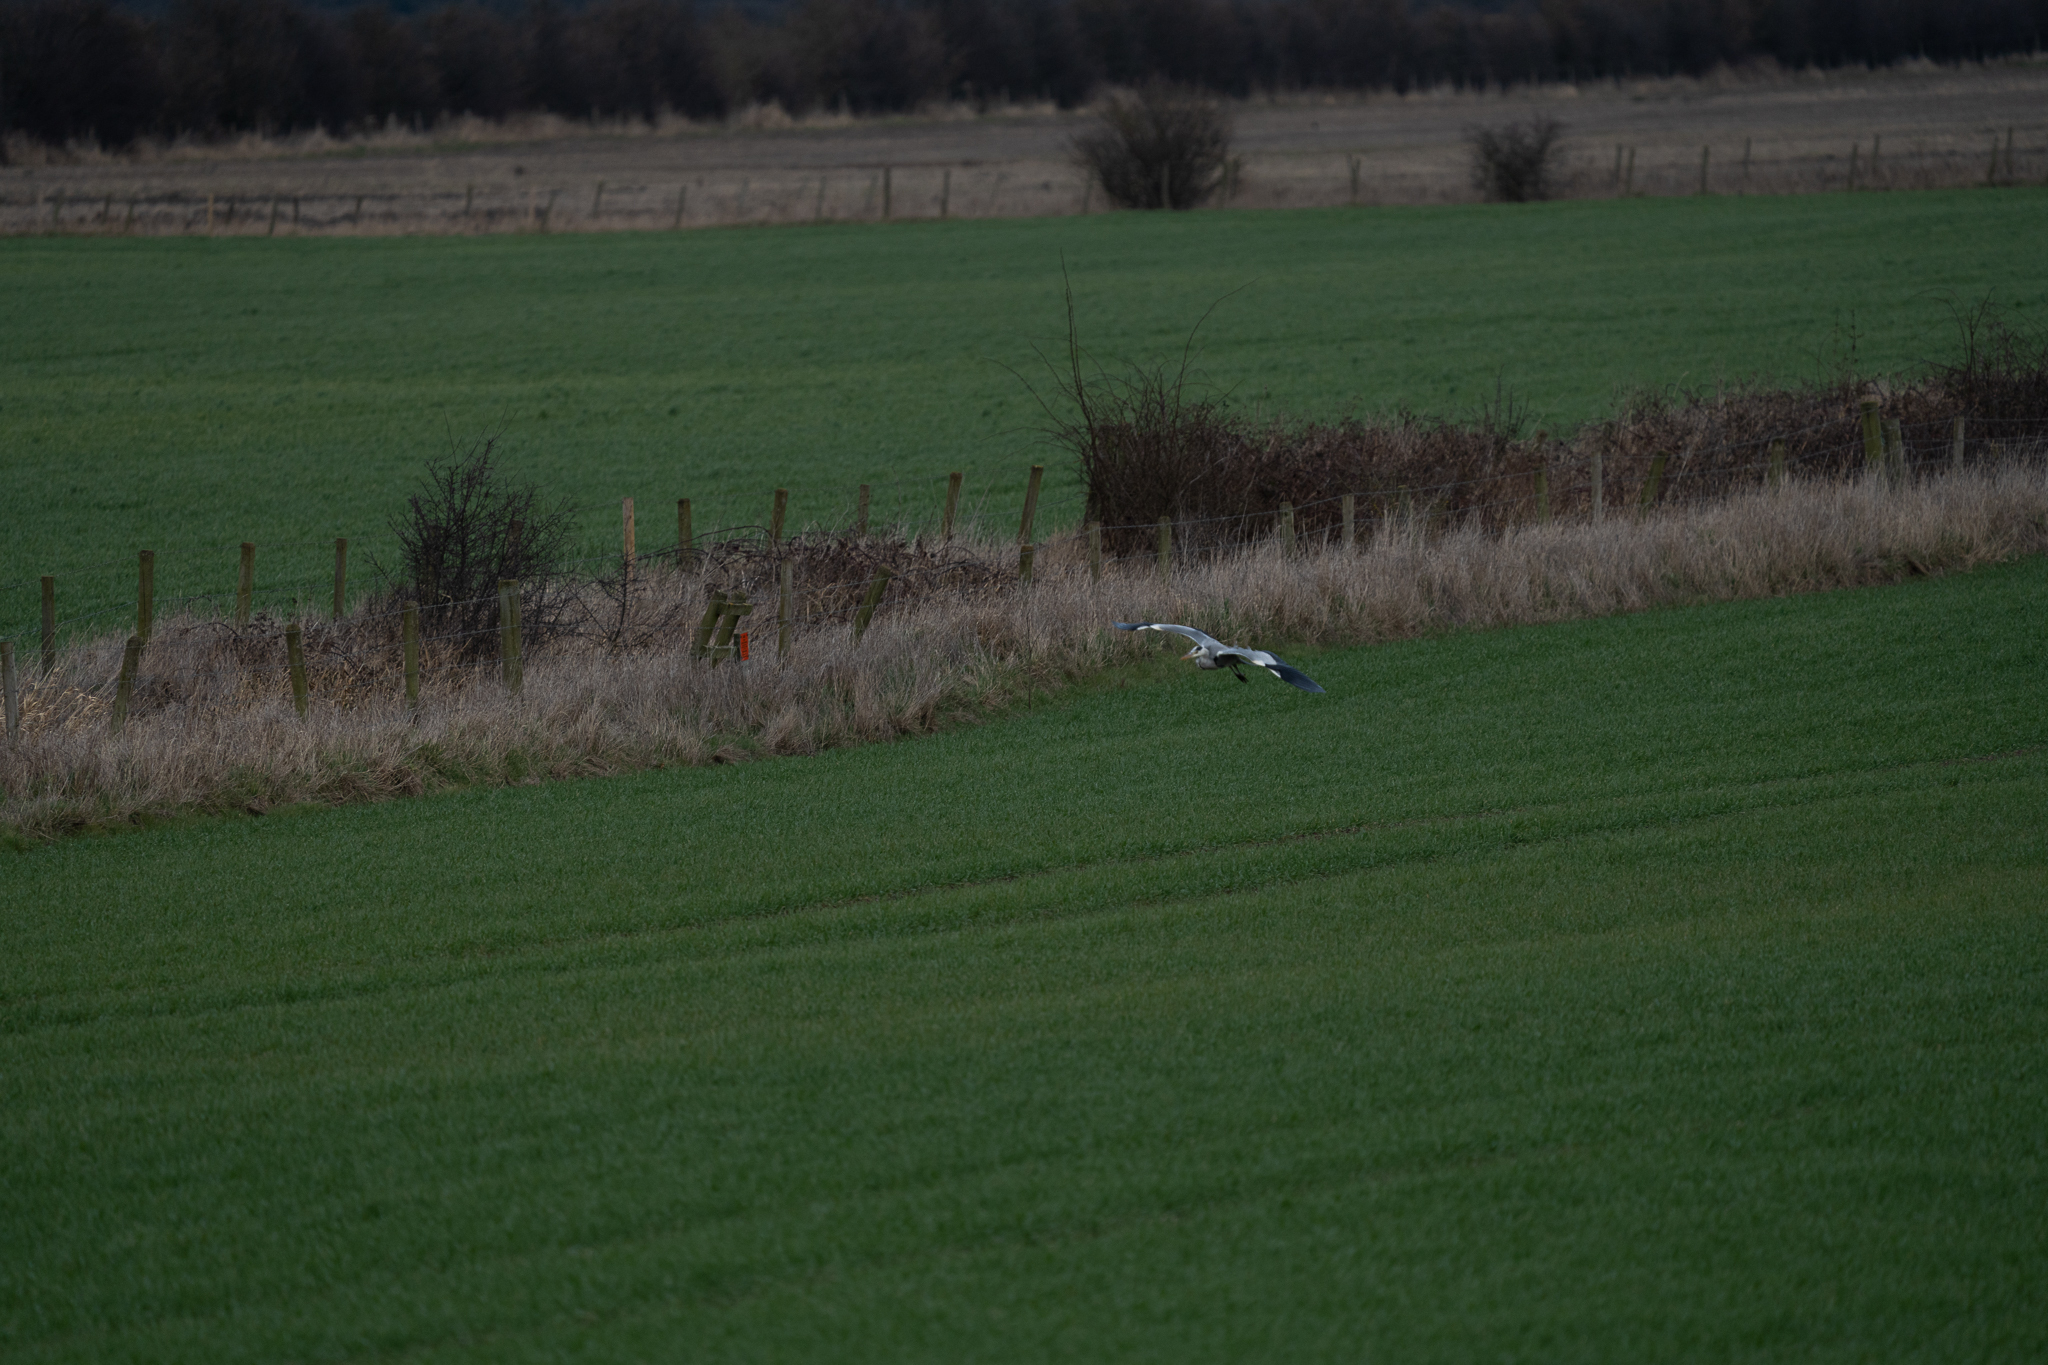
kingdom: Animalia
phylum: Chordata
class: Aves
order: Pelecaniformes
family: Ardeidae
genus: Ardea
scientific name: Ardea cinerea
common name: Grey heron
